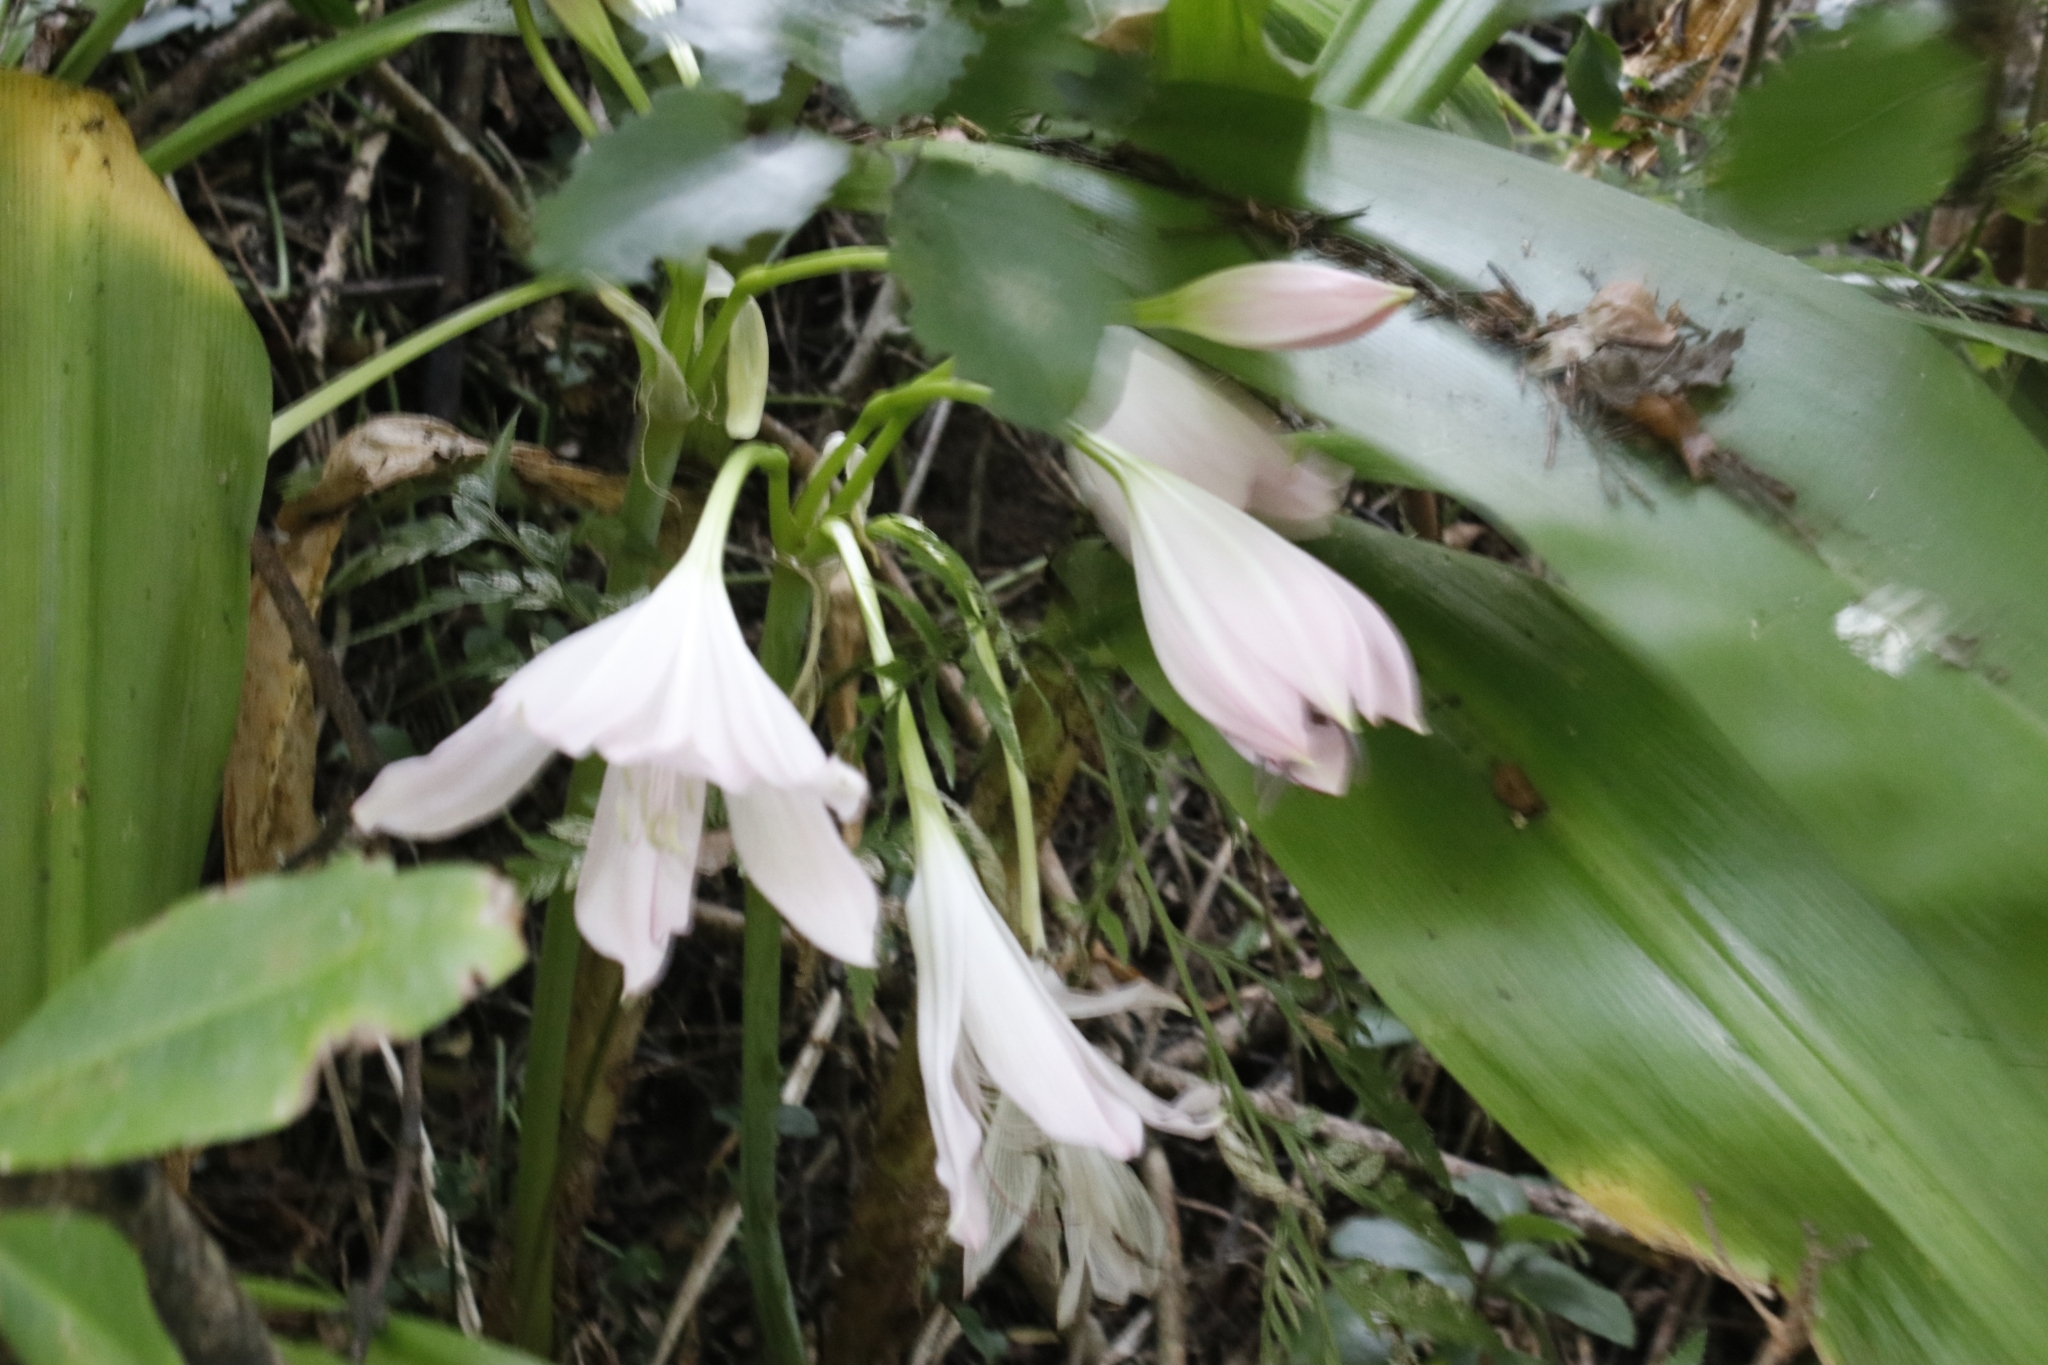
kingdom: Plantae
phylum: Tracheophyta
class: Liliopsida
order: Asparagales
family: Amaryllidaceae
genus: Crinum
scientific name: Crinum moorei
